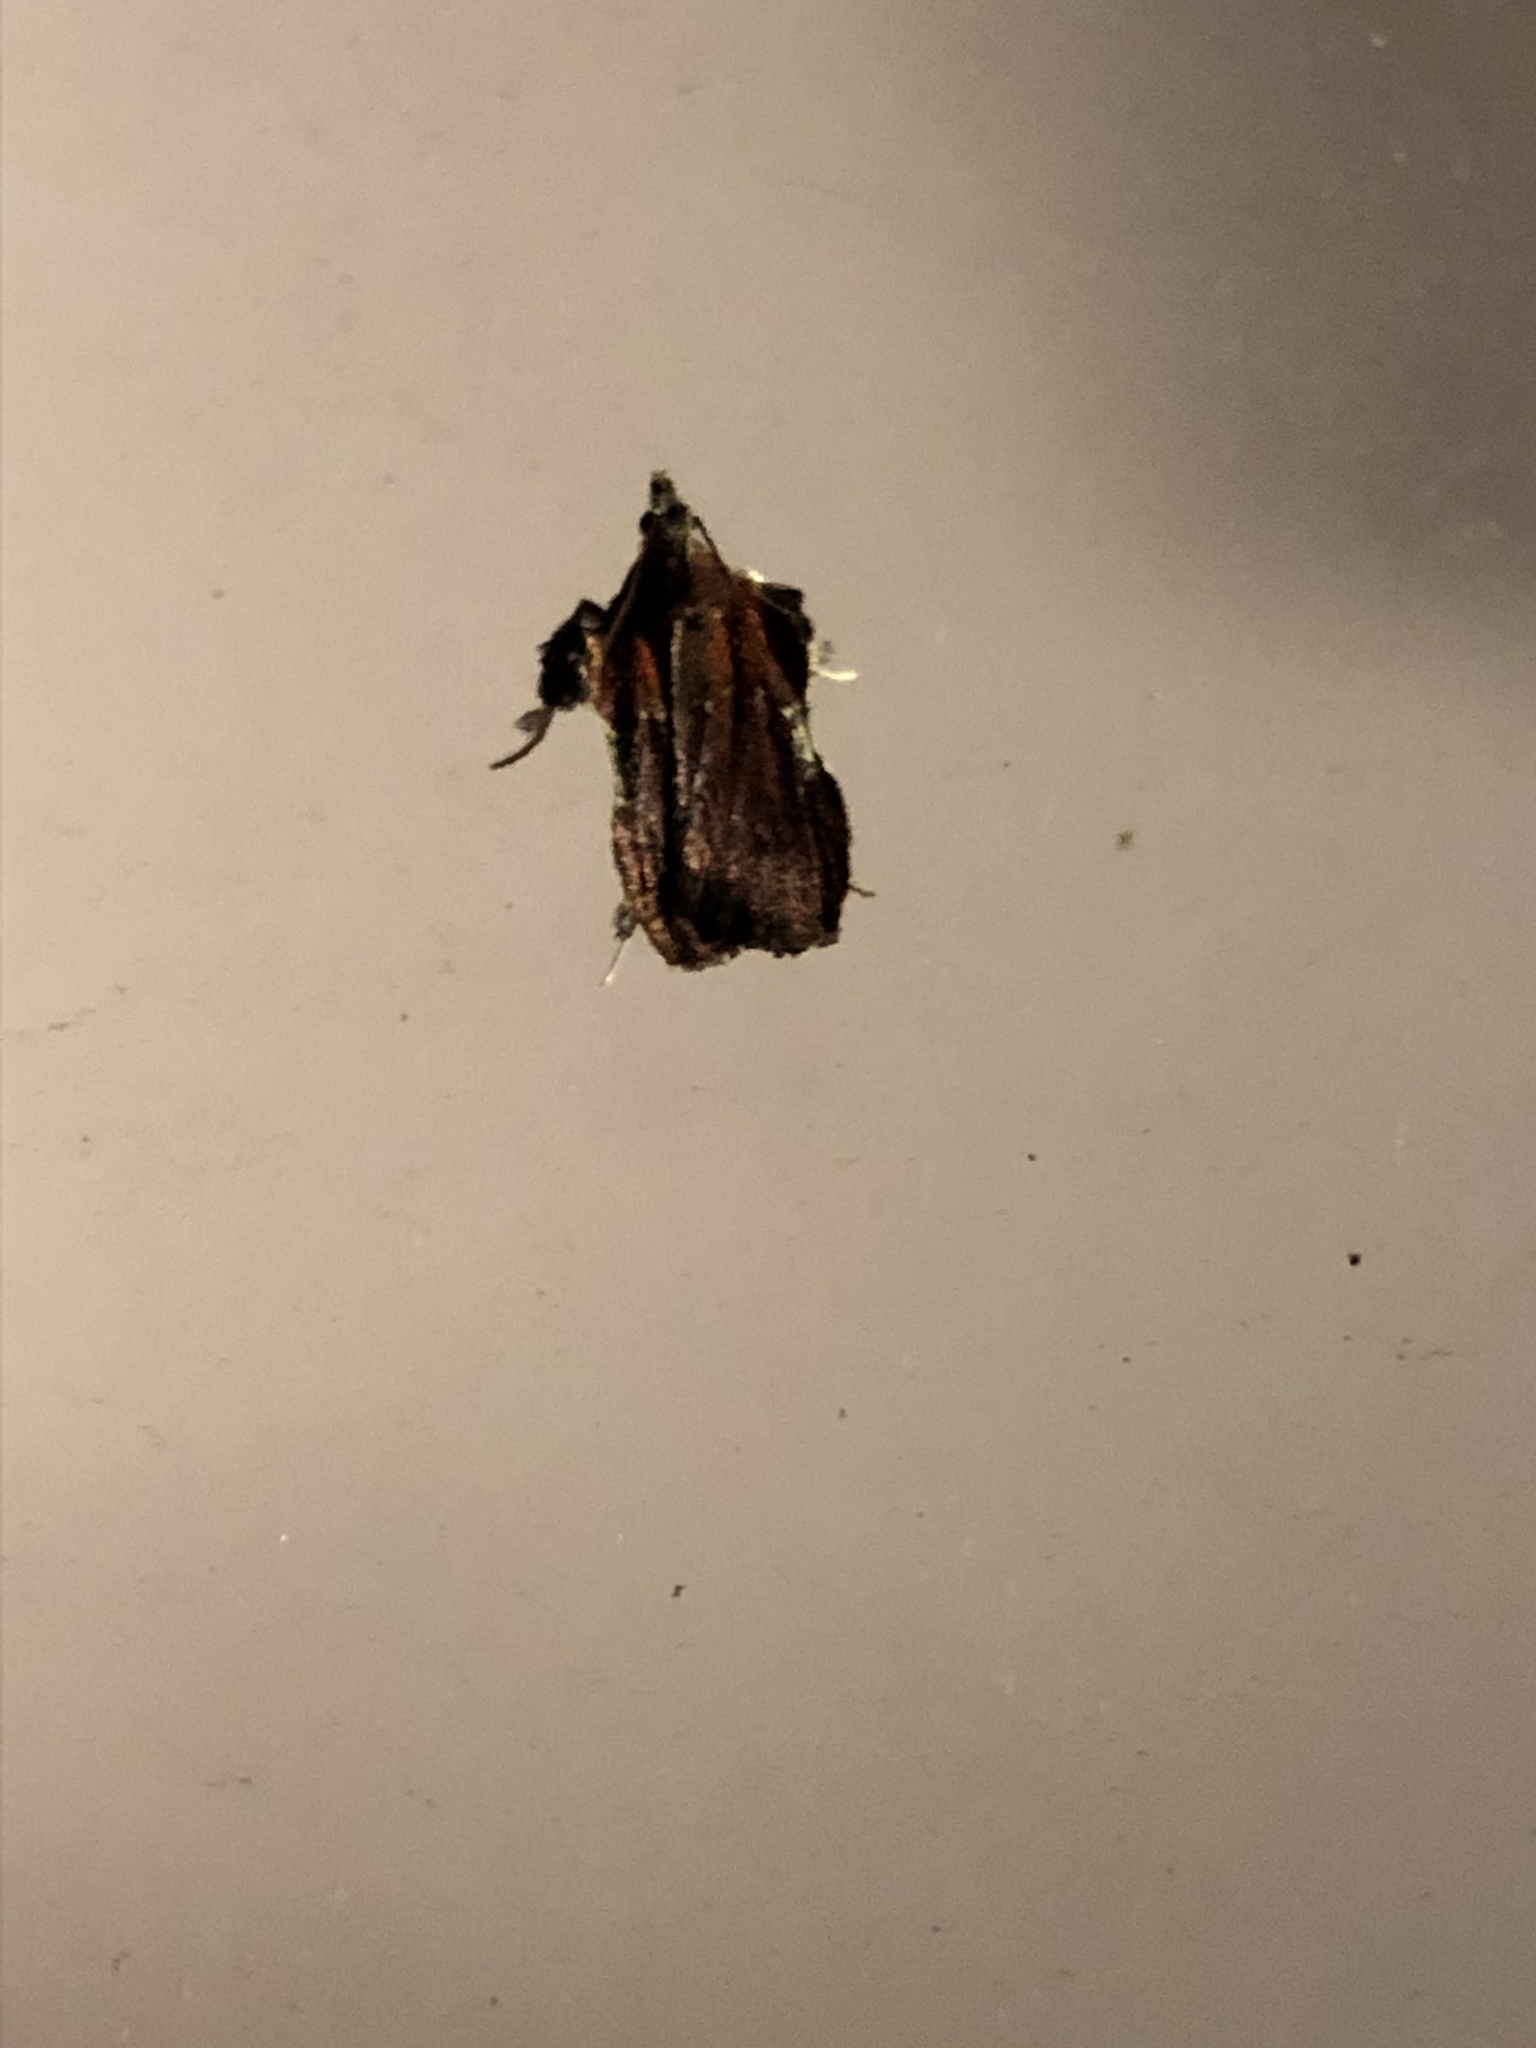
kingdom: Animalia
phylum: Arthropoda
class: Insecta
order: Lepidoptera
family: Pyralidae
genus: Galasa
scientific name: Galasa nigrinodis
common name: Boxwood leaftier moth
